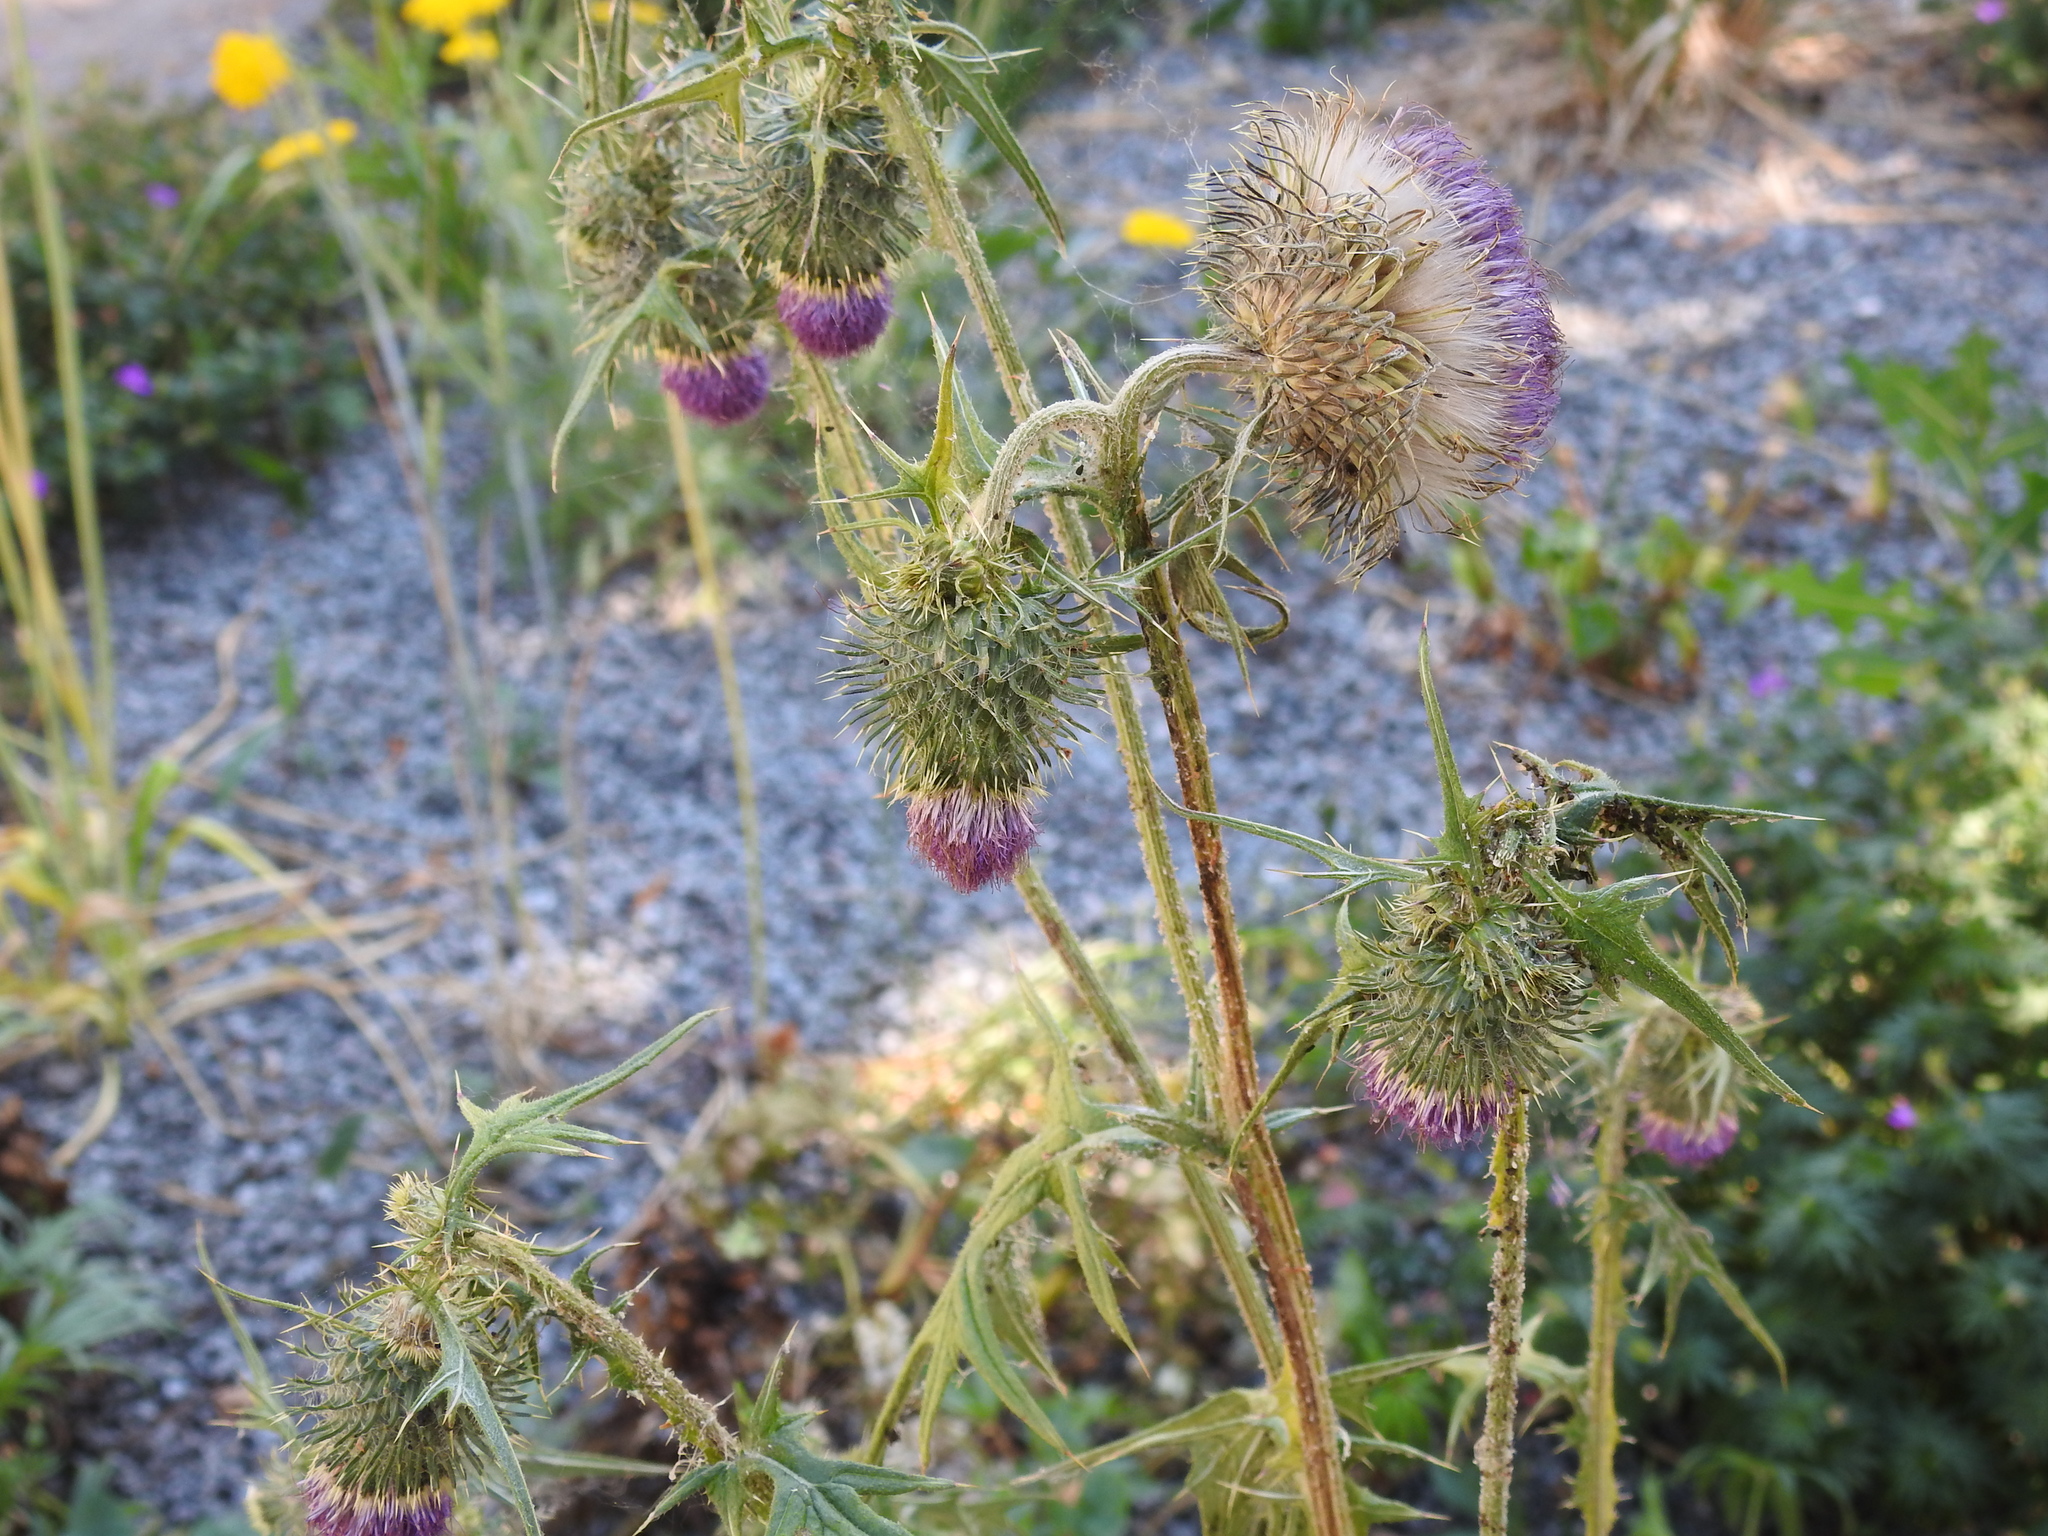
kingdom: Plantae
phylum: Tracheophyta
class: Magnoliopsida
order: Asterales
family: Asteraceae
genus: Carduus
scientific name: Carduus nutans
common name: Musk thistle
